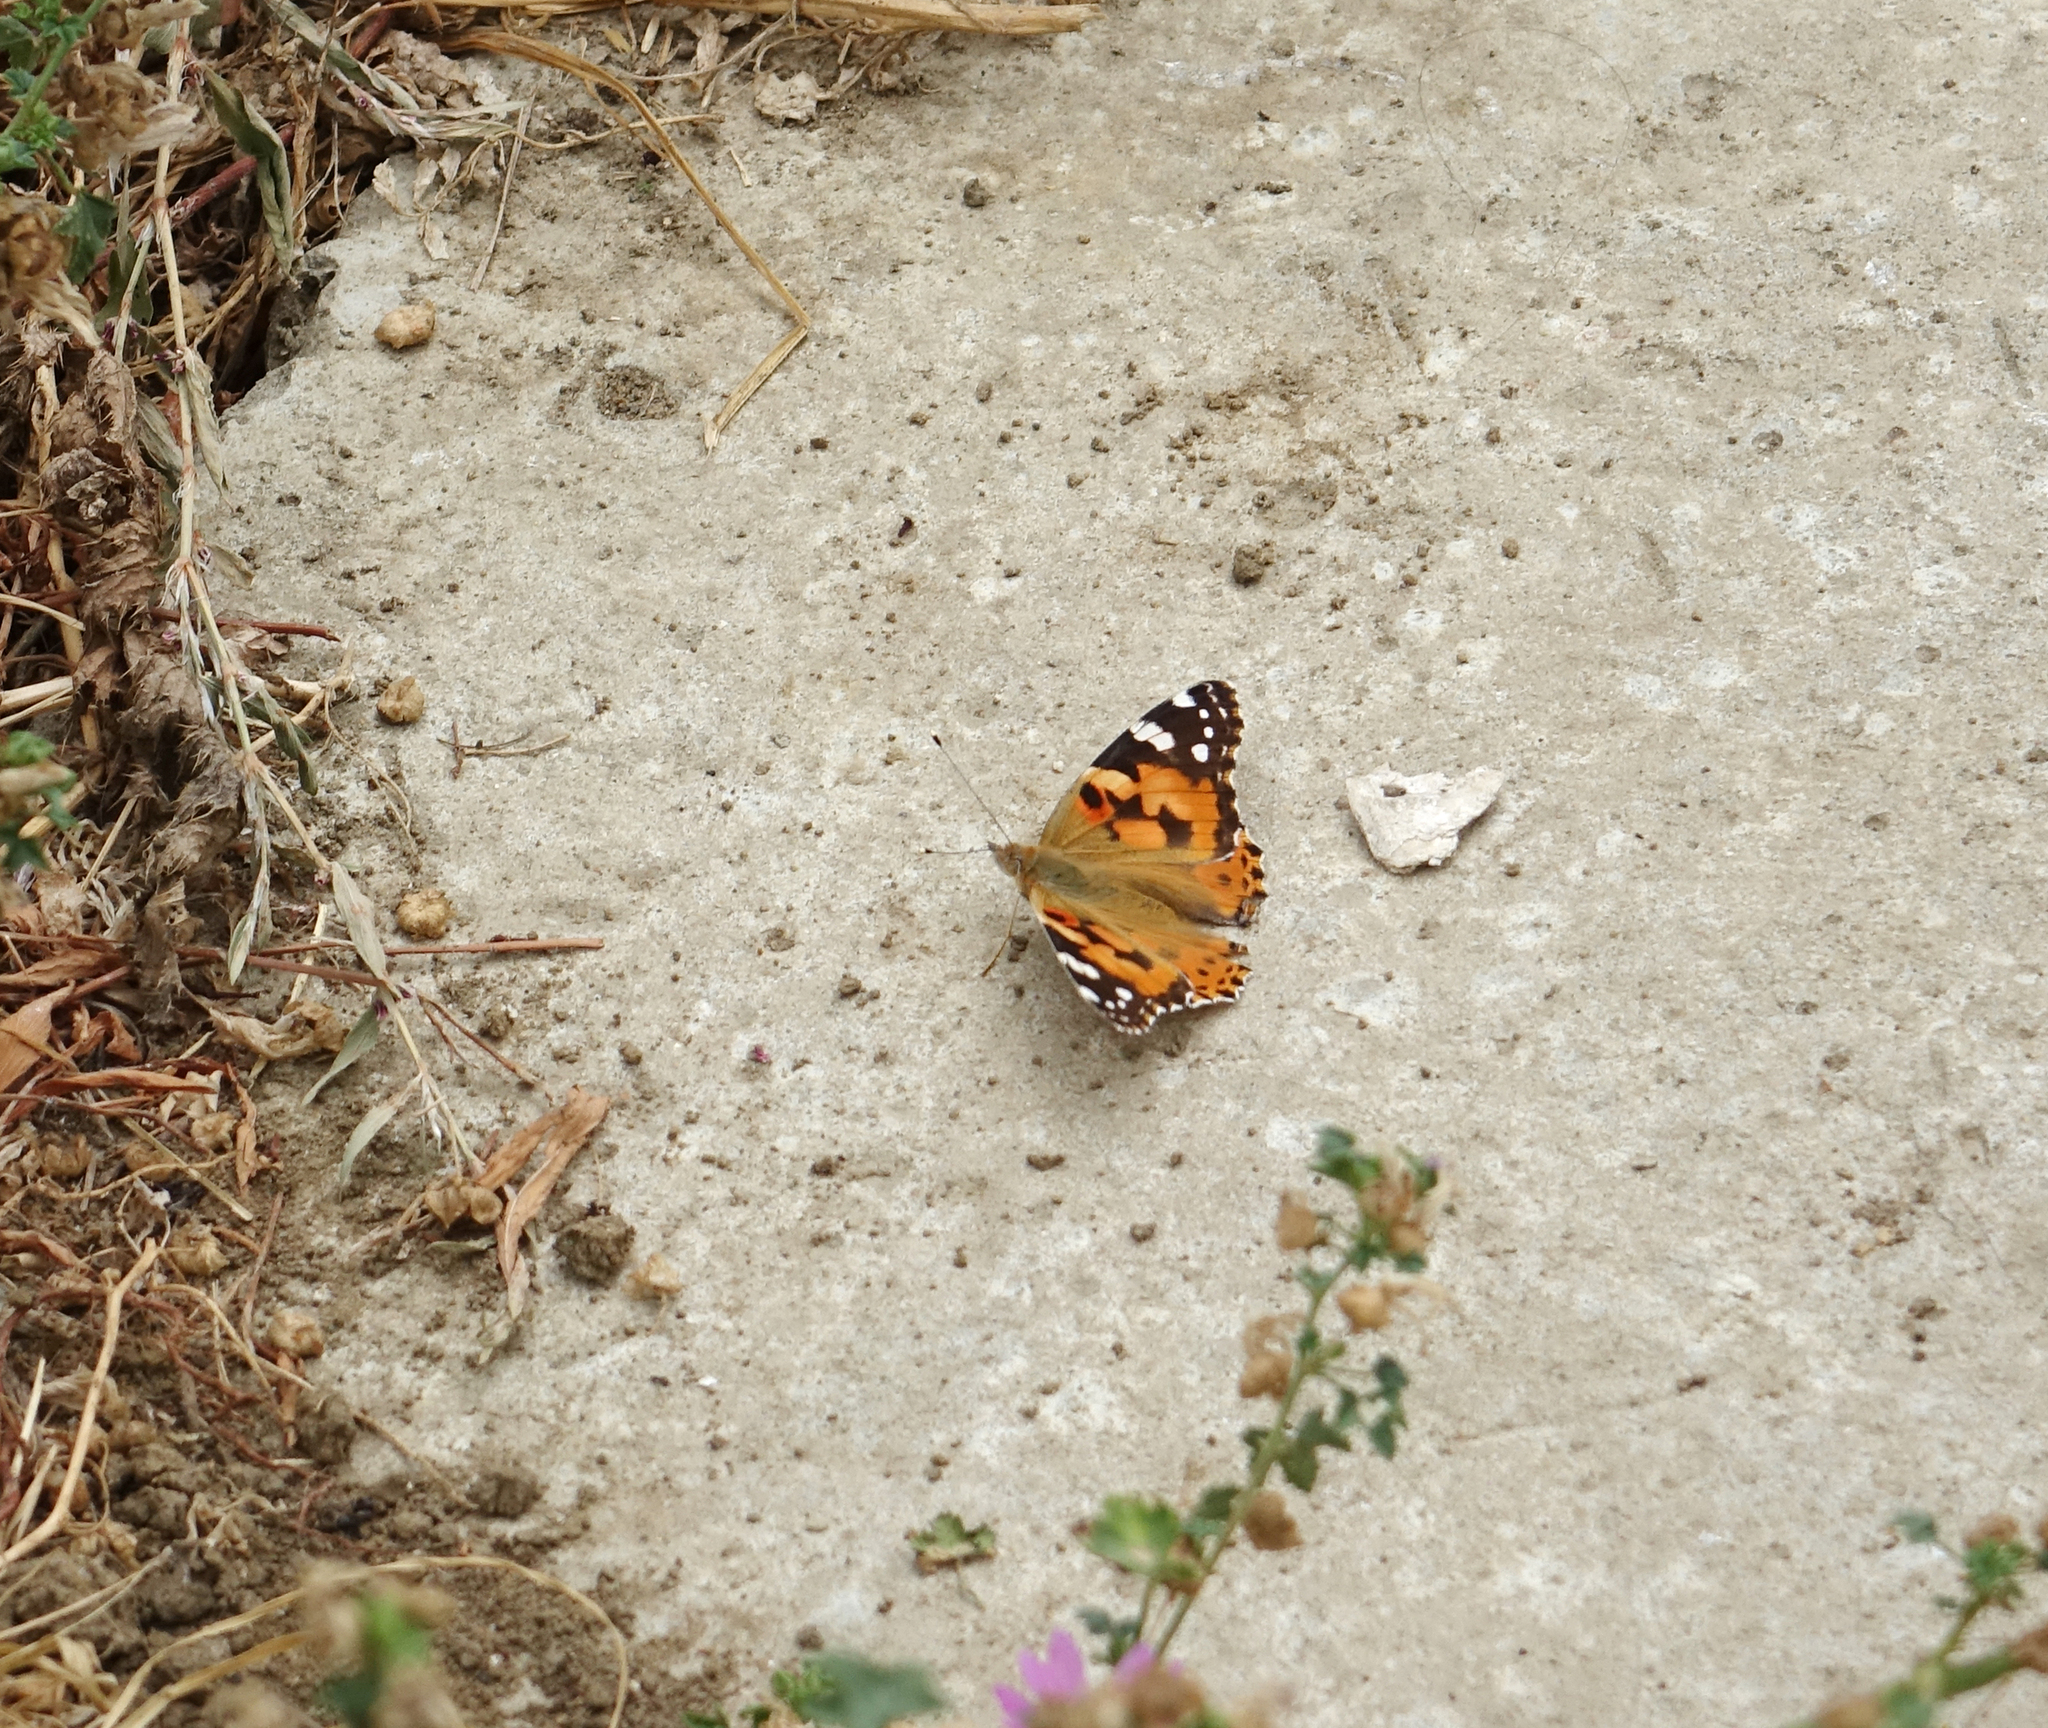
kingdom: Animalia
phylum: Arthropoda
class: Insecta
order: Lepidoptera
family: Nymphalidae
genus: Vanessa
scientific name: Vanessa cardui
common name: Painted lady
